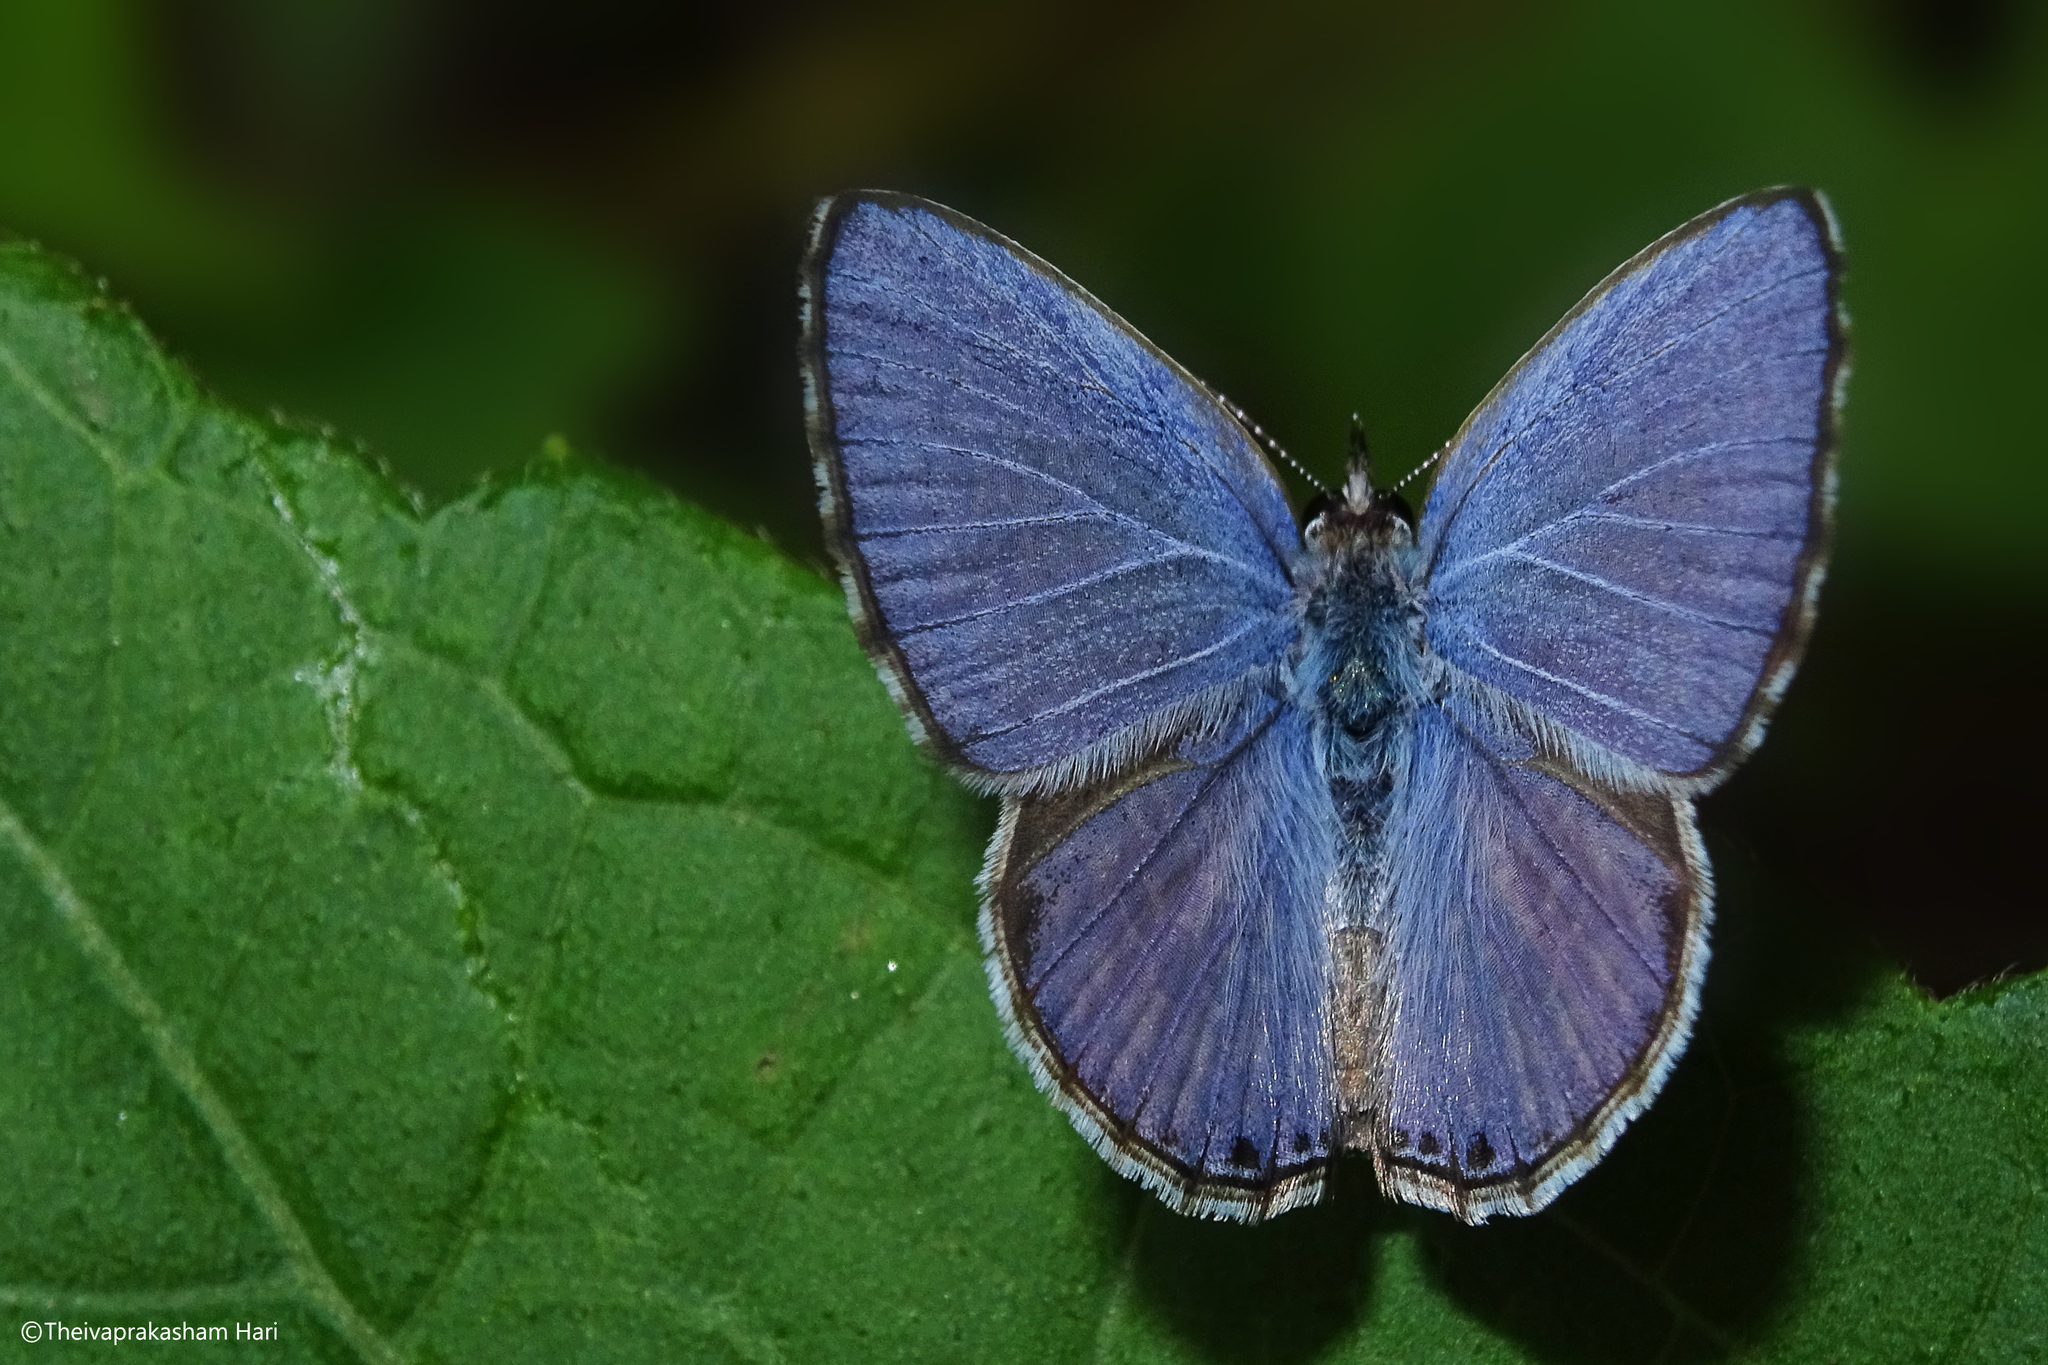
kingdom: Animalia
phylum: Arthropoda
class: Insecta
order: Lepidoptera
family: Lycaenidae
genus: Chilades
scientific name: Chilades laius
